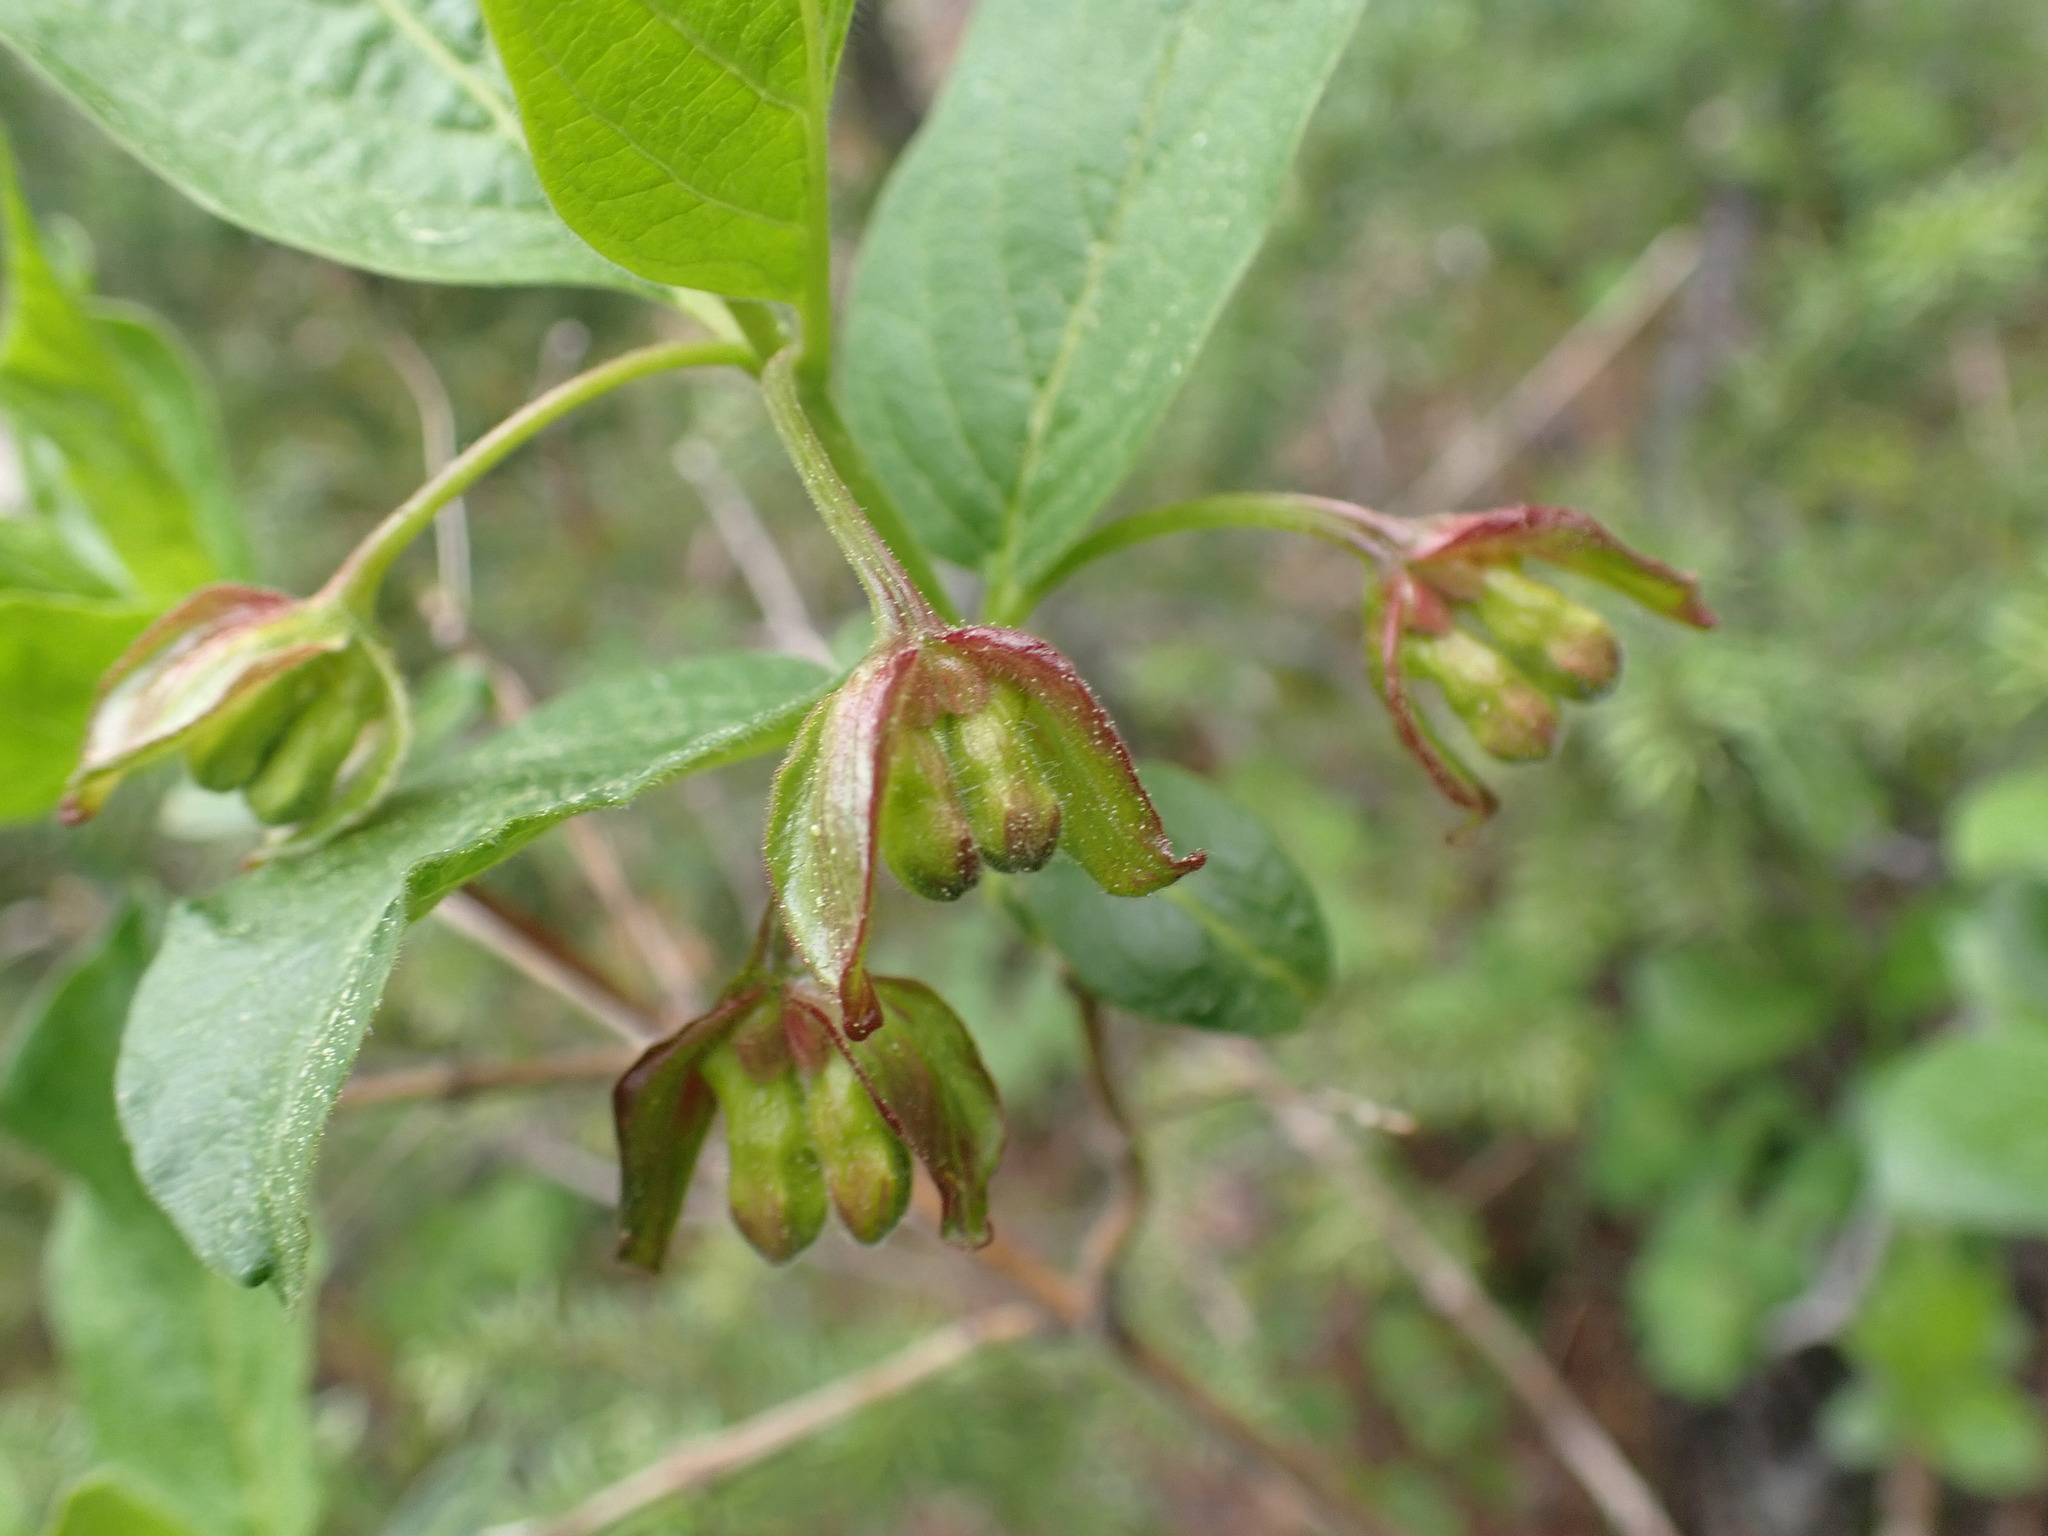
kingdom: Plantae
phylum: Tracheophyta
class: Magnoliopsida
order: Dipsacales
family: Caprifoliaceae
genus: Lonicera
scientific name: Lonicera involucrata
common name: Californian honeysuckle
